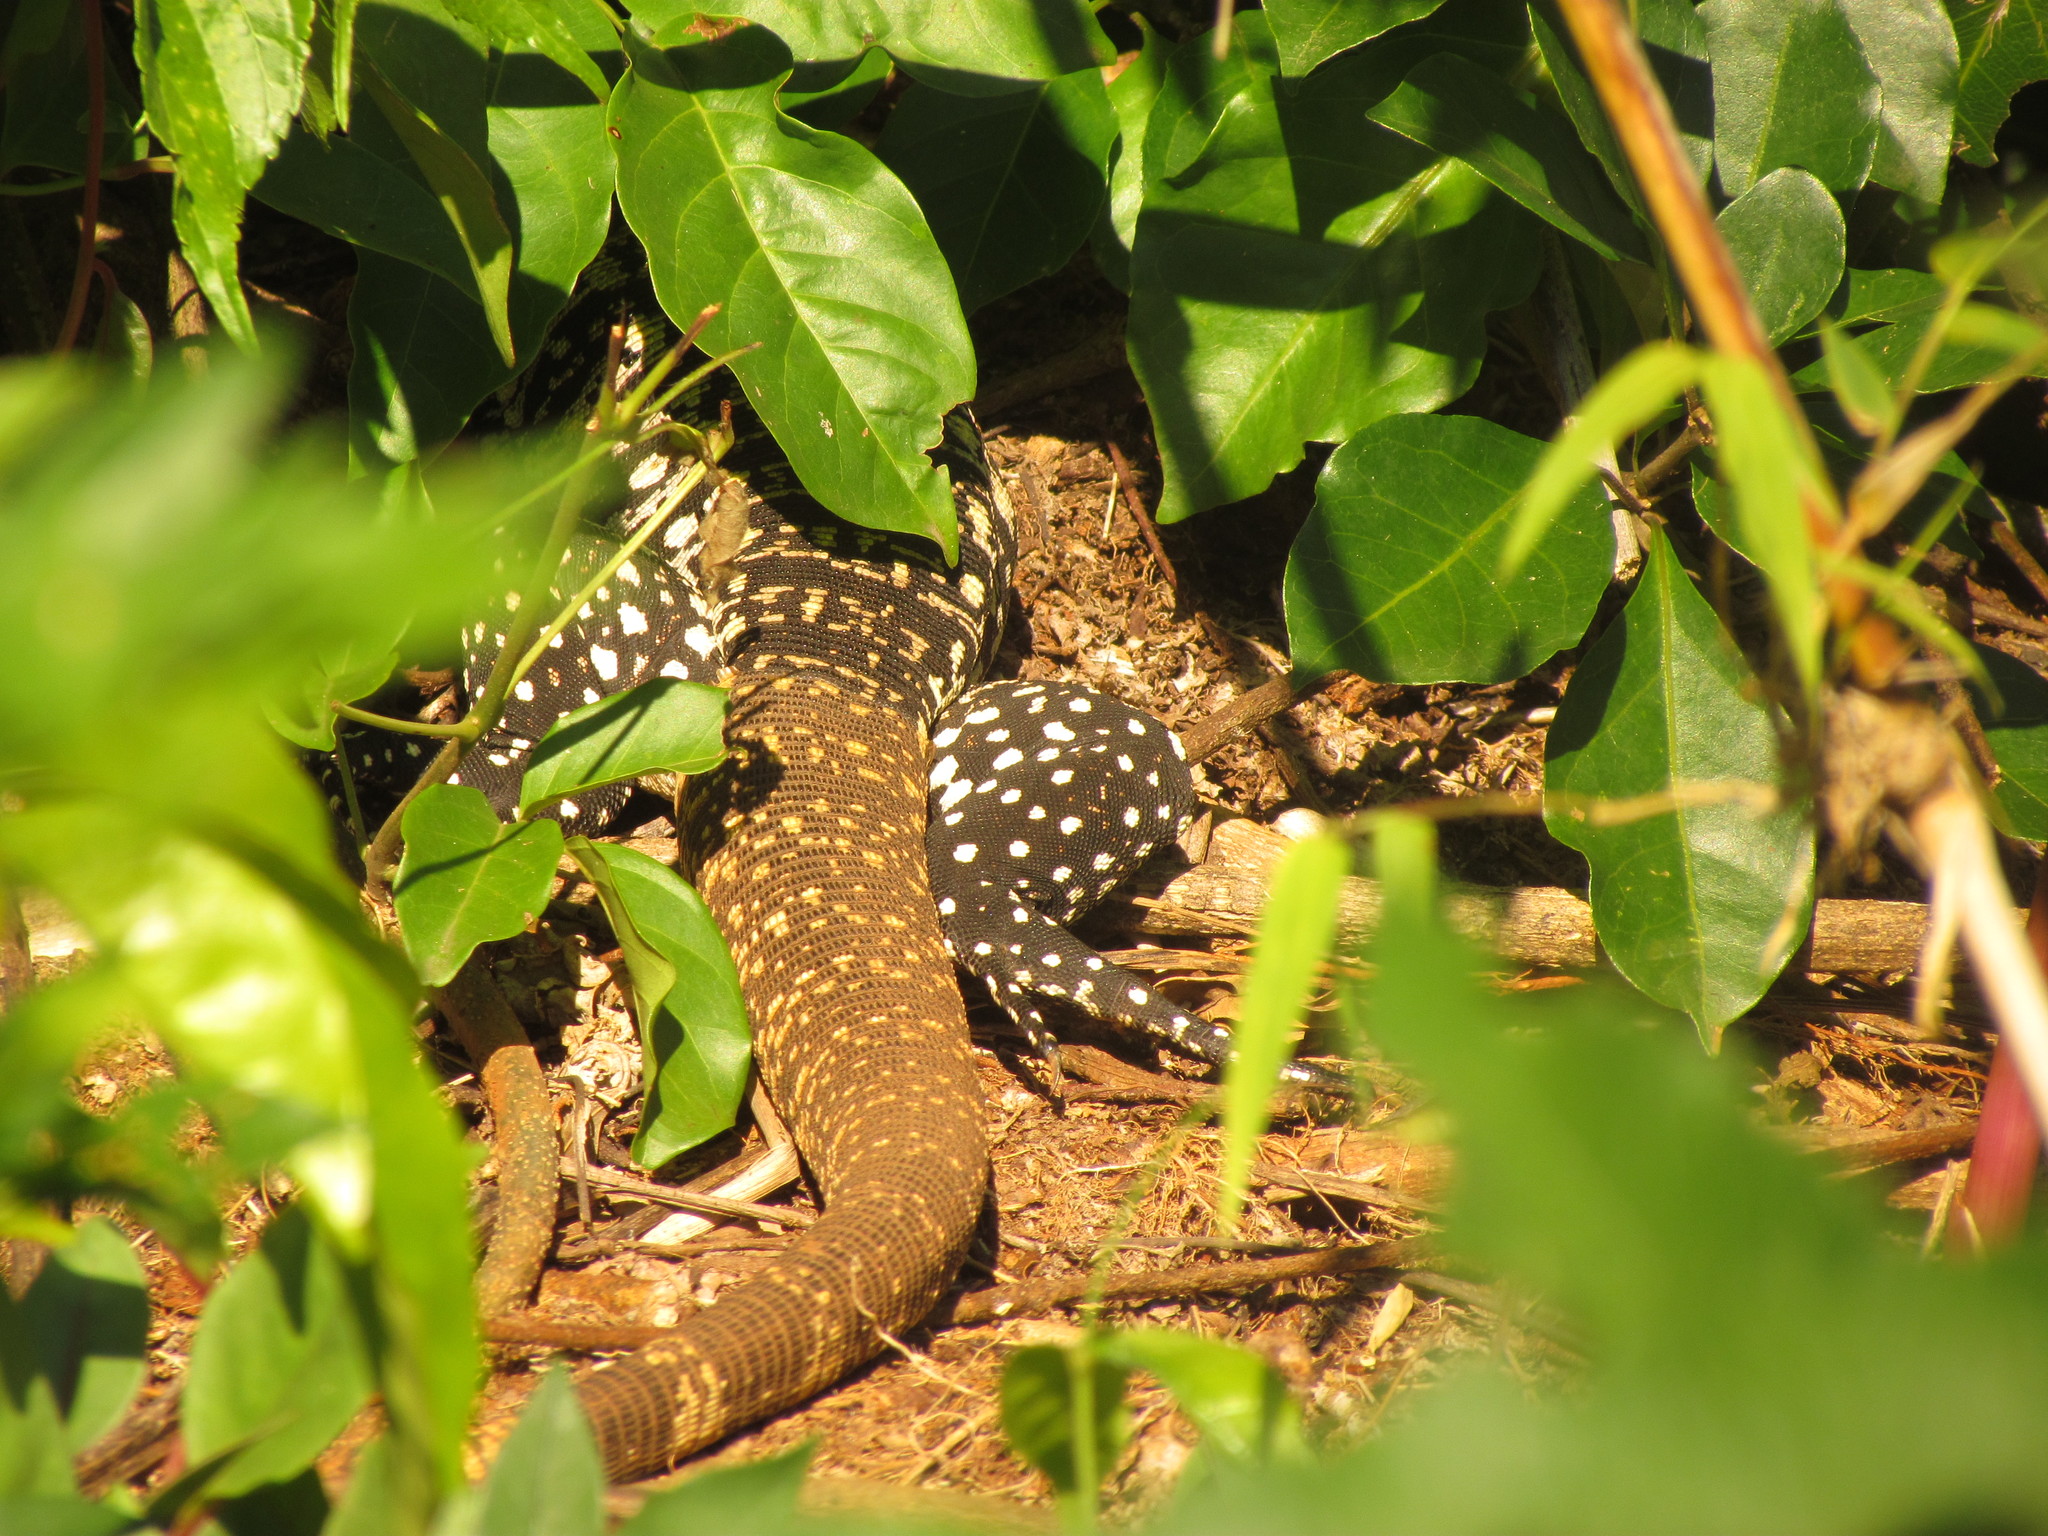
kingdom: Animalia
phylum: Chordata
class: Squamata
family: Teiidae
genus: Salvator
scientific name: Salvator merianae
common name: Argentine black and white tegu
